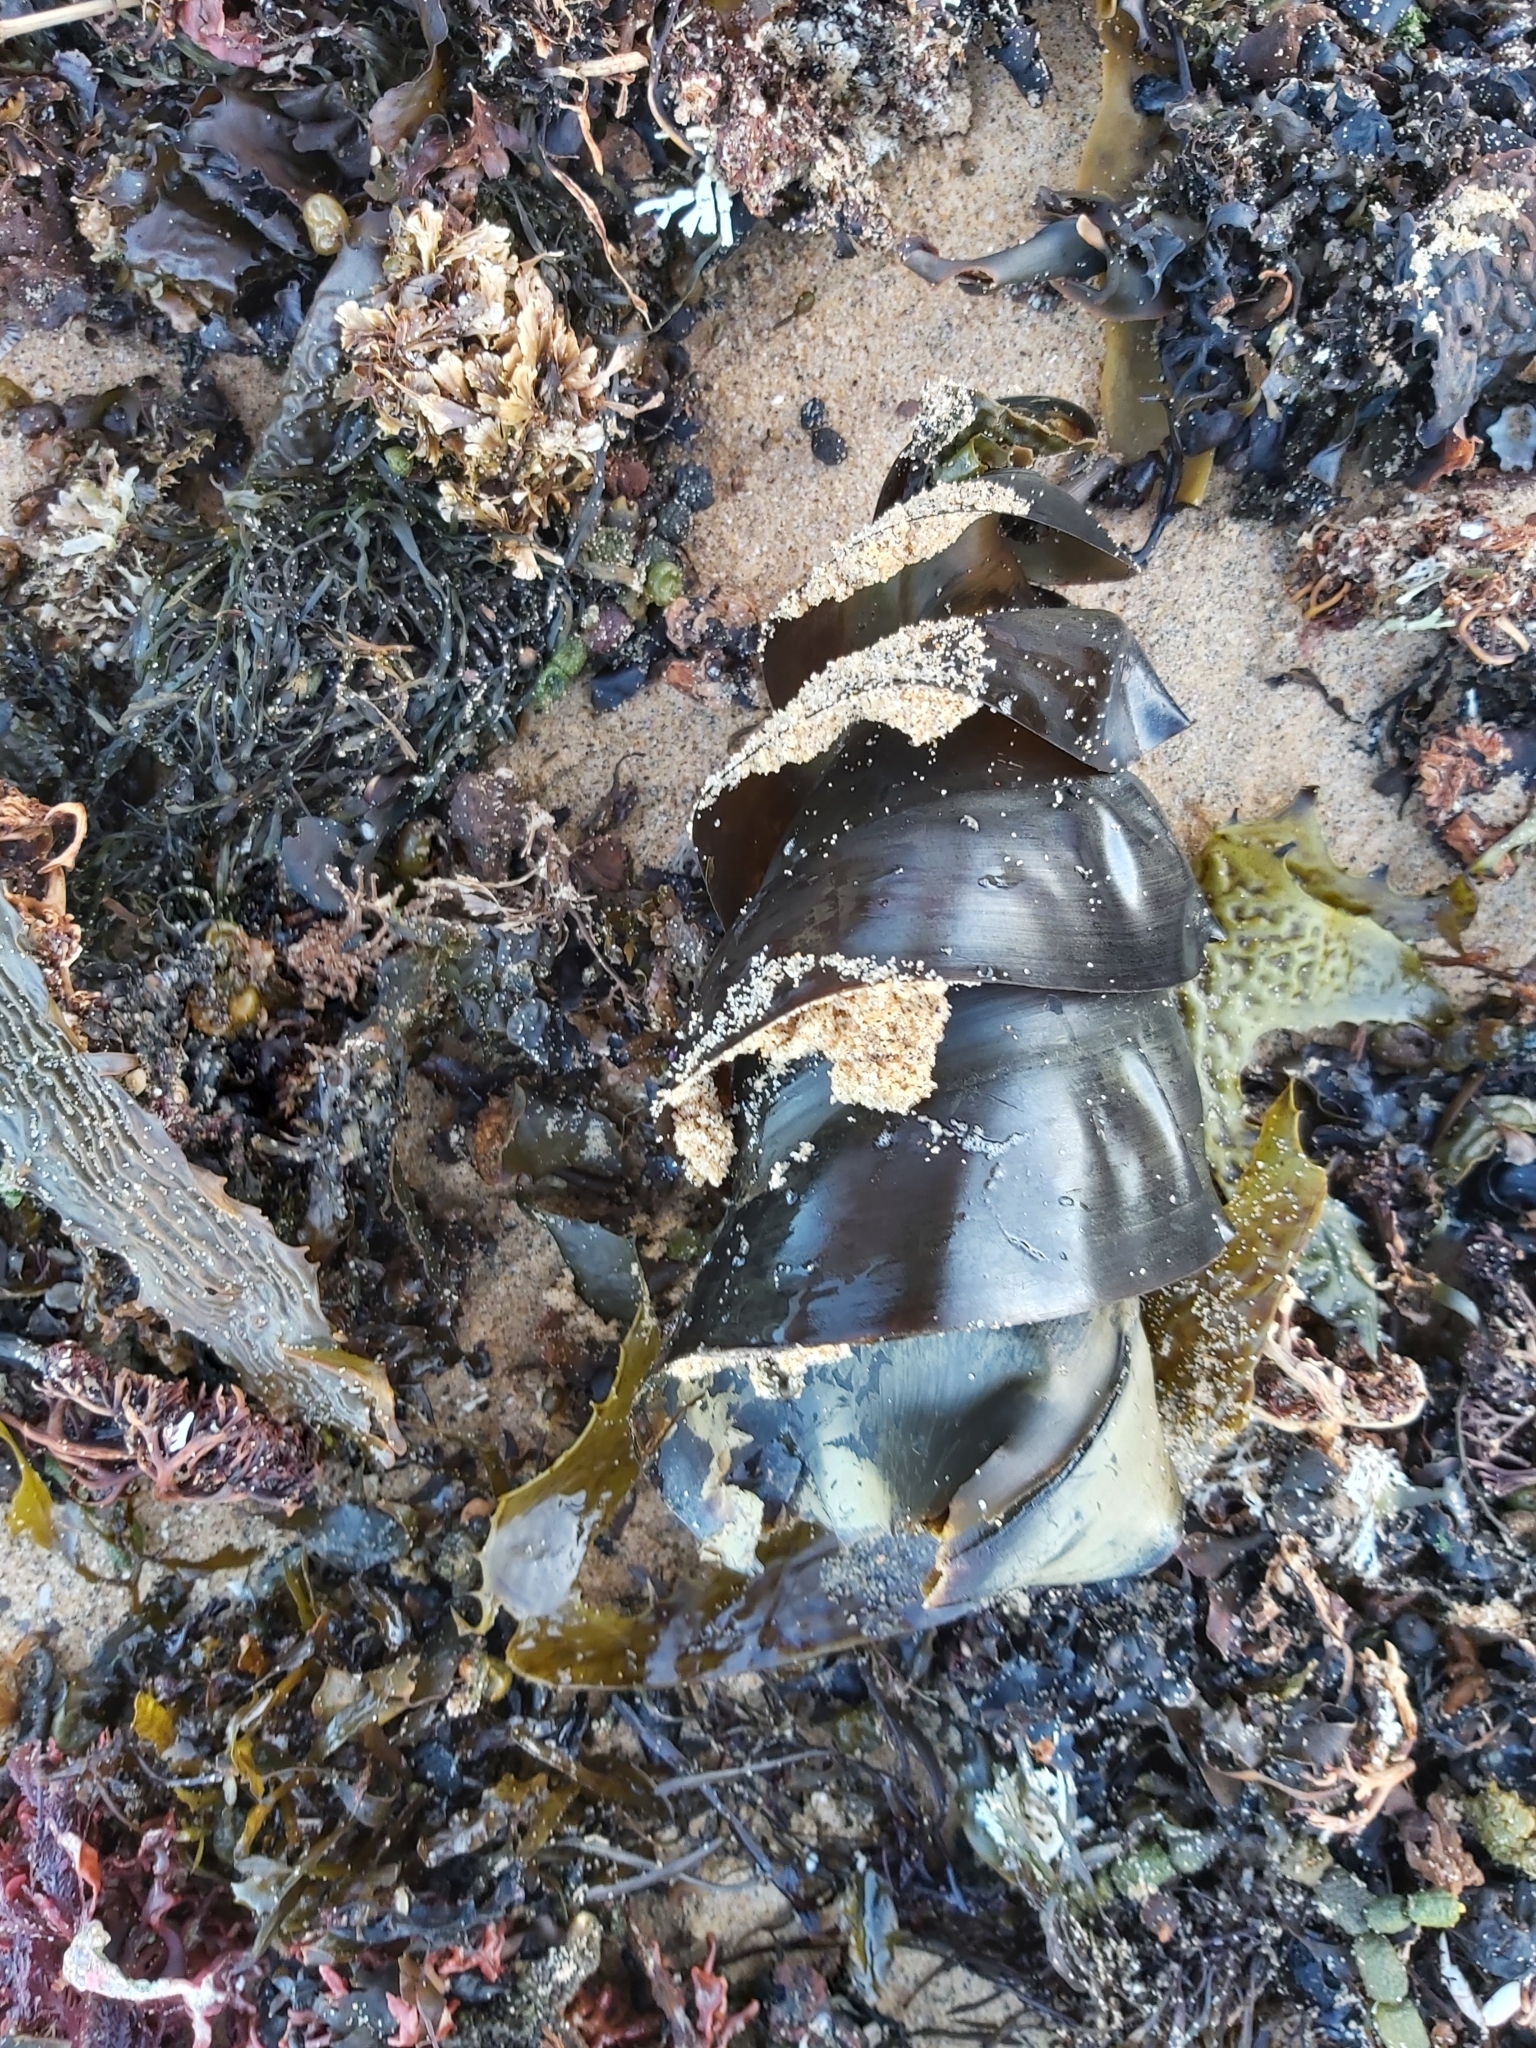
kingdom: Animalia
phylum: Chordata
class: Elasmobranchii
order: Heterodontiformes
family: Heterodontidae
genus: Heterodontus
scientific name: Heterodontus portusjacksoni
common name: Port jackson shark
